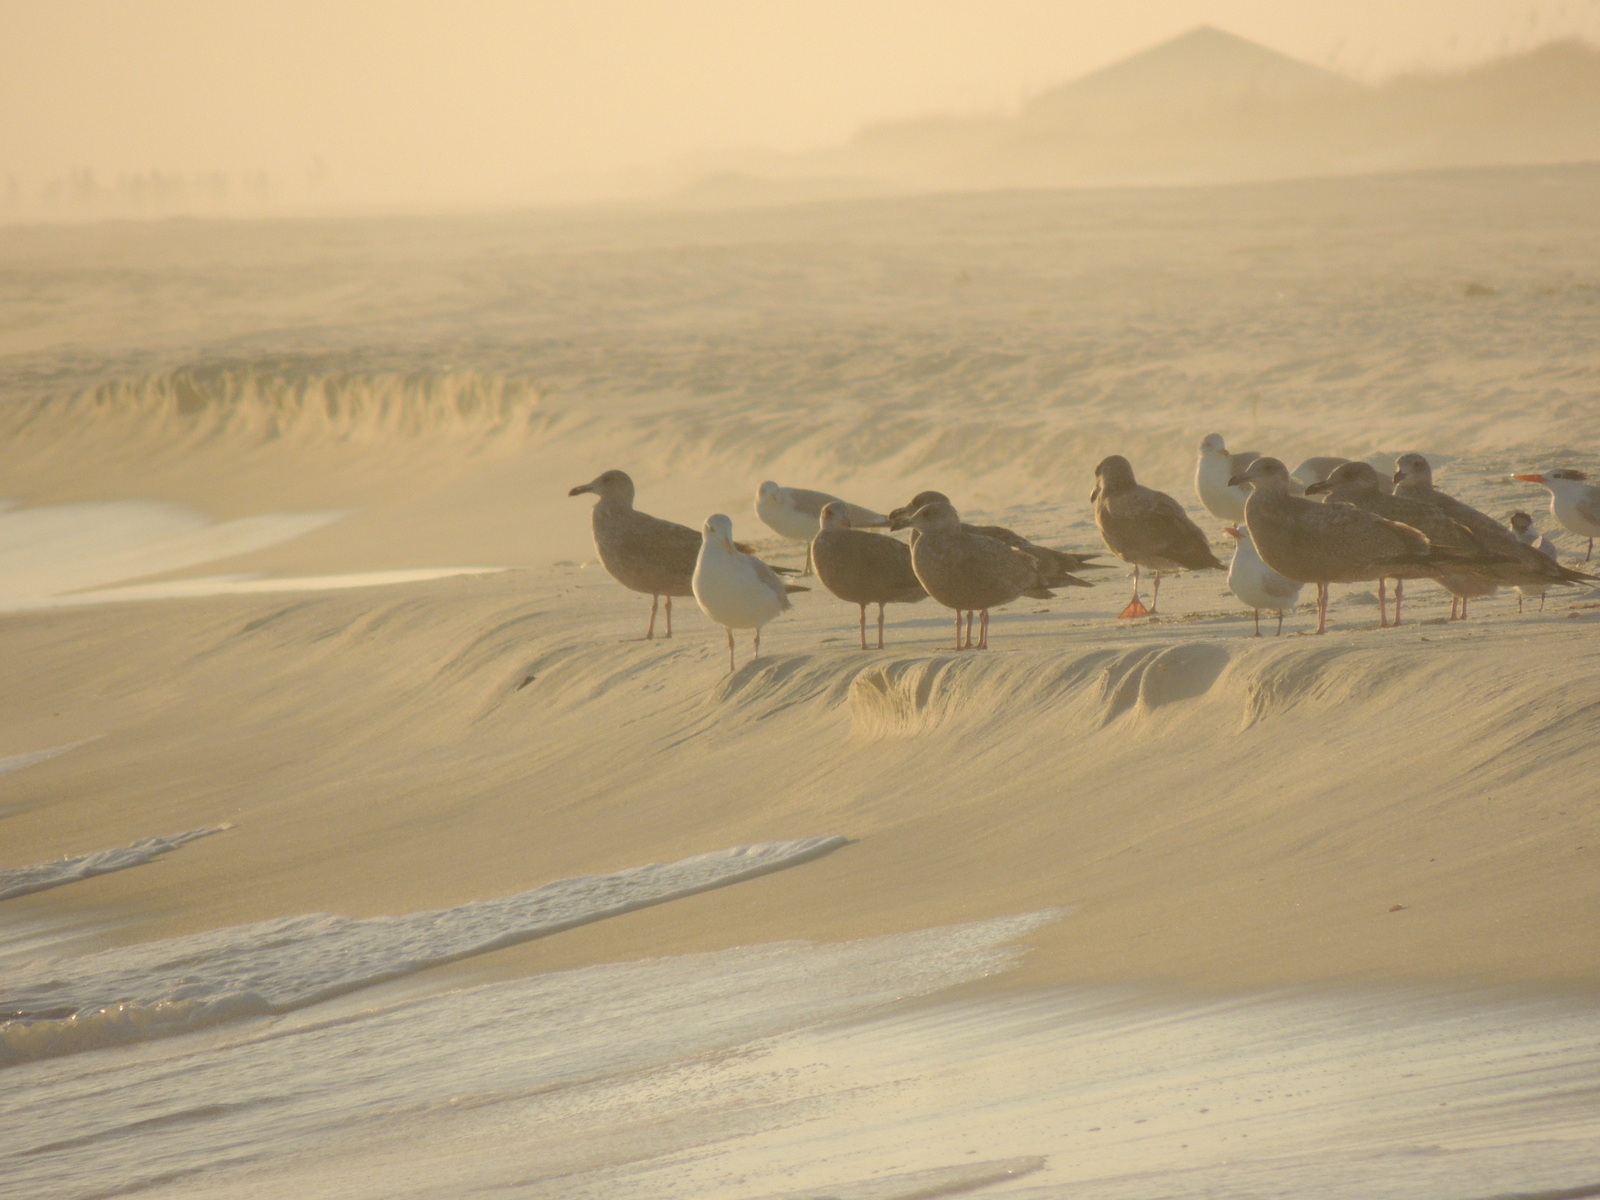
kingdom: Animalia
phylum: Chordata
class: Aves
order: Charadriiformes
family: Laridae
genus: Larus
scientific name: Larus delawarensis
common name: Ring-billed gull
